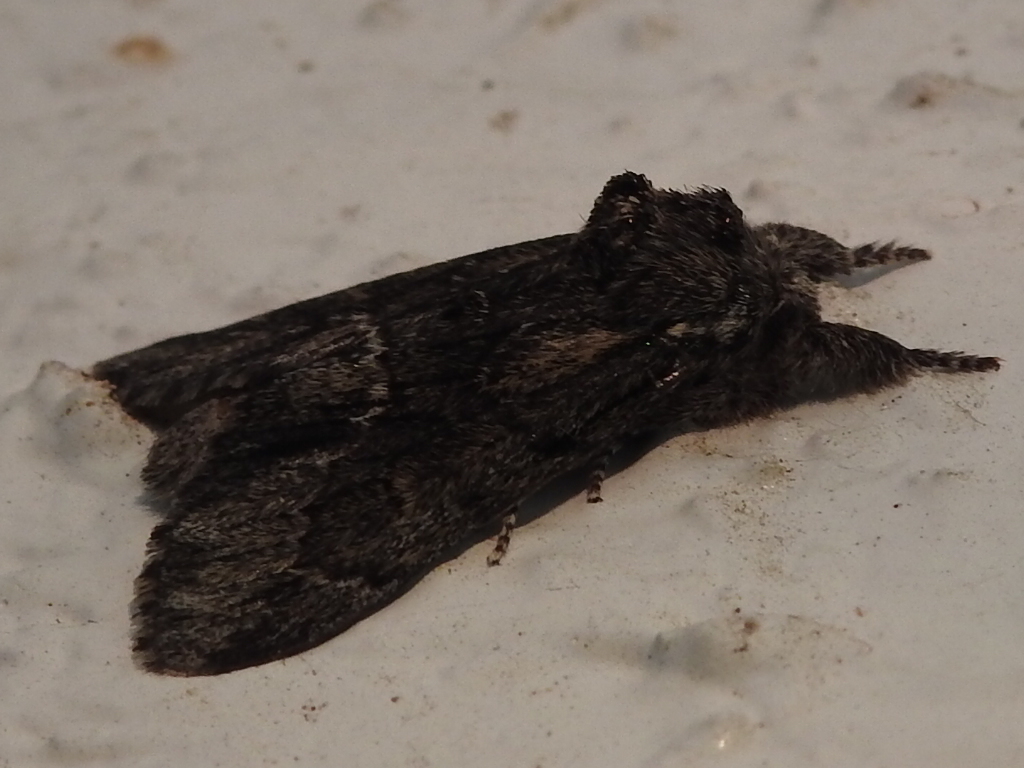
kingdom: Animalia
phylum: Arthropoda
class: Insecta
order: Lepidoptera
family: Notodontidae
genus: Paraeschra
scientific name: Paraeschra georgica
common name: Georgian prominent
